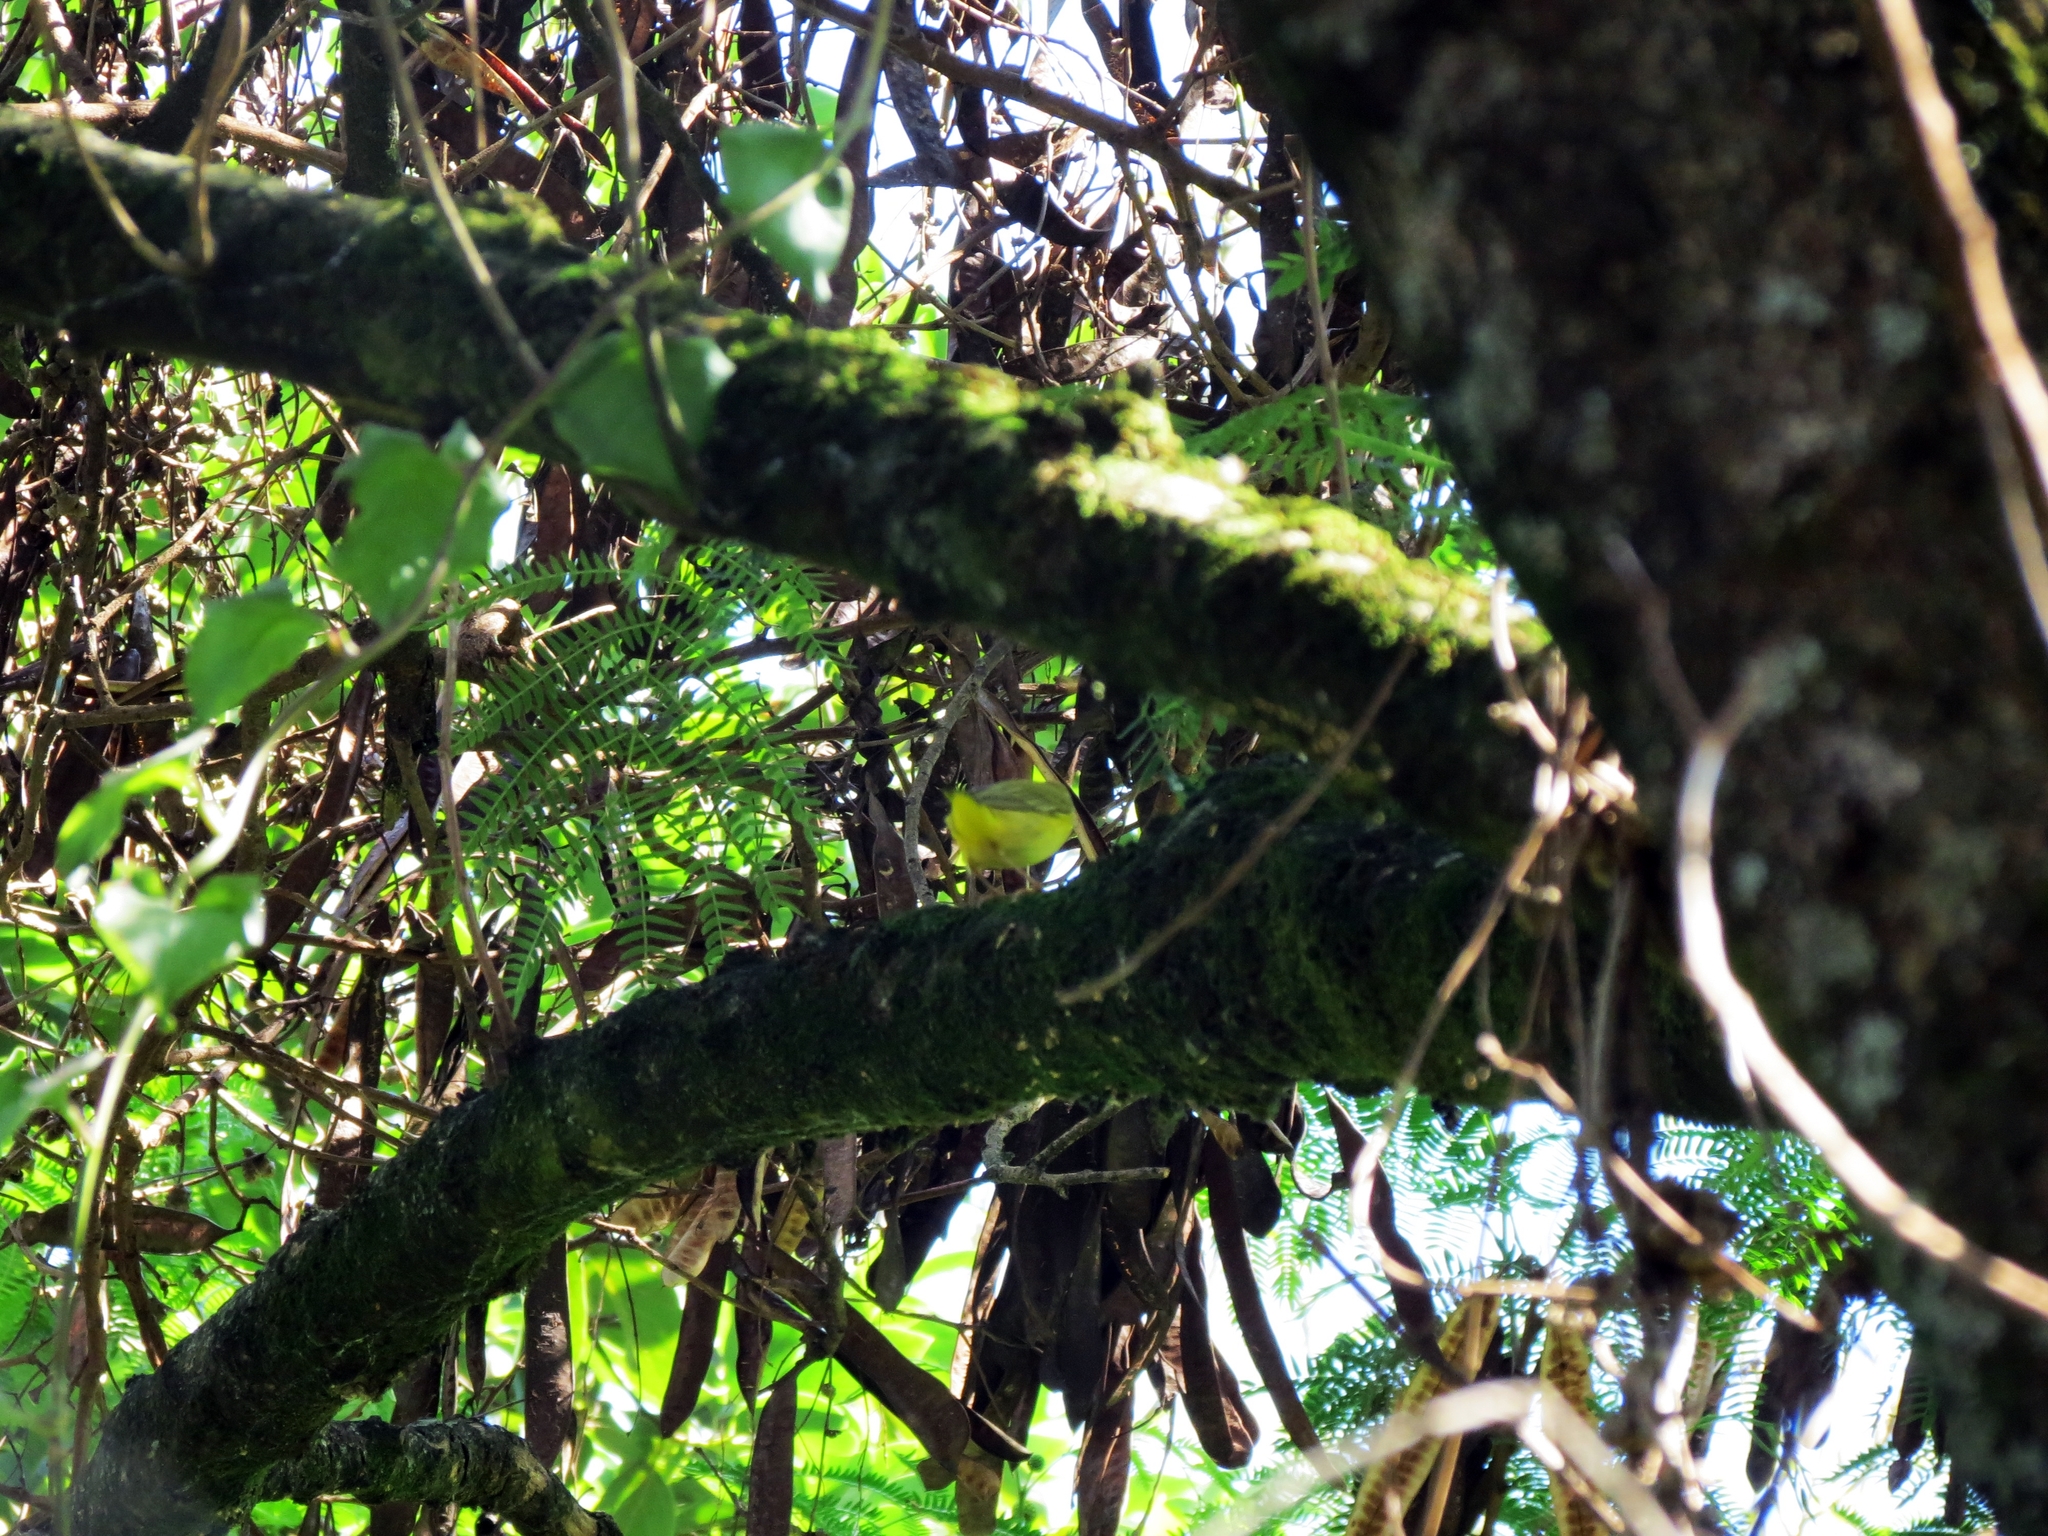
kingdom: Animalia
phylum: Chordata
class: Aves
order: Passeriformes
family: Parulidae
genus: Setophaga
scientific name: Setophaga petechia
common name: Yellow warbler
